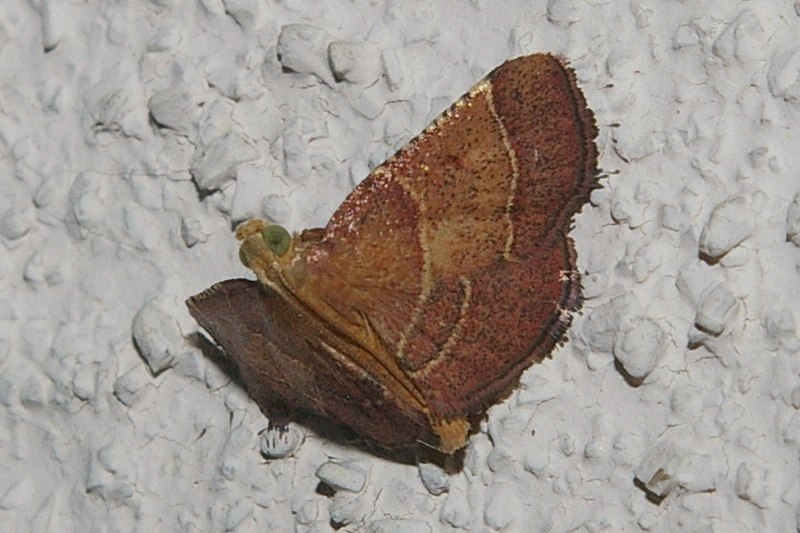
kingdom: Animalia
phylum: Arthropoda
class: Insecta
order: Lepidoptera
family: Pyralidae
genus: Tegulifera
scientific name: Tegulifera bicoloralis
